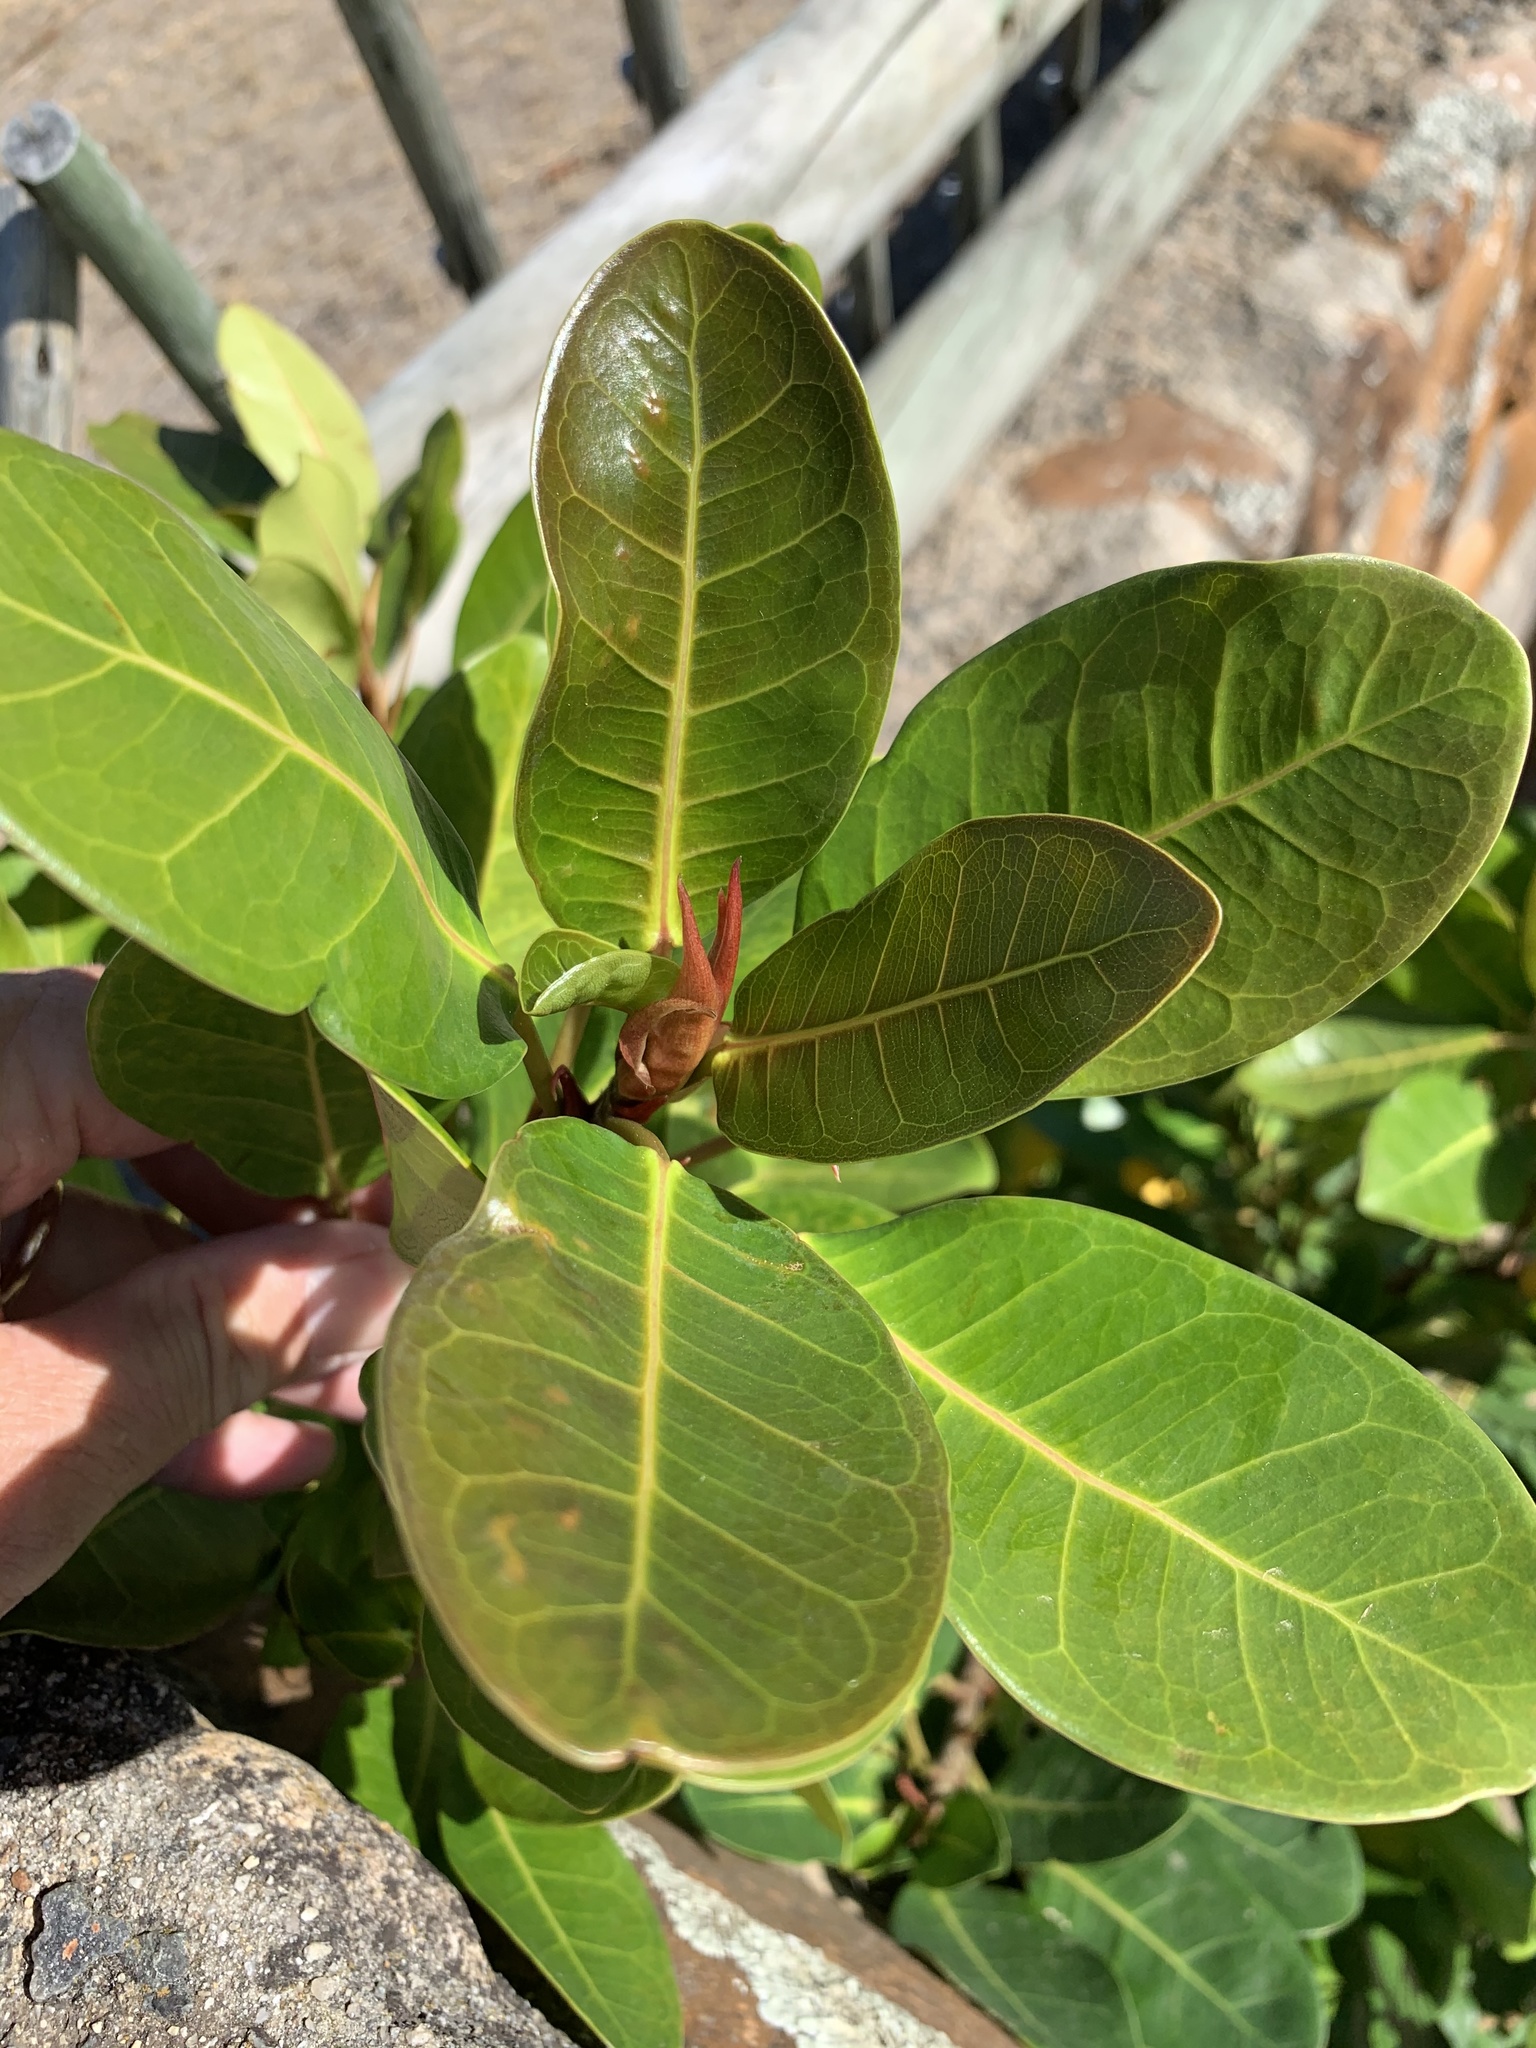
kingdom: Plantae
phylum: Tracheophyta
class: Magnoliopsida
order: Rosales
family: Moraceae
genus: Ficus
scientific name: Ficus thonningii
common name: Fig
